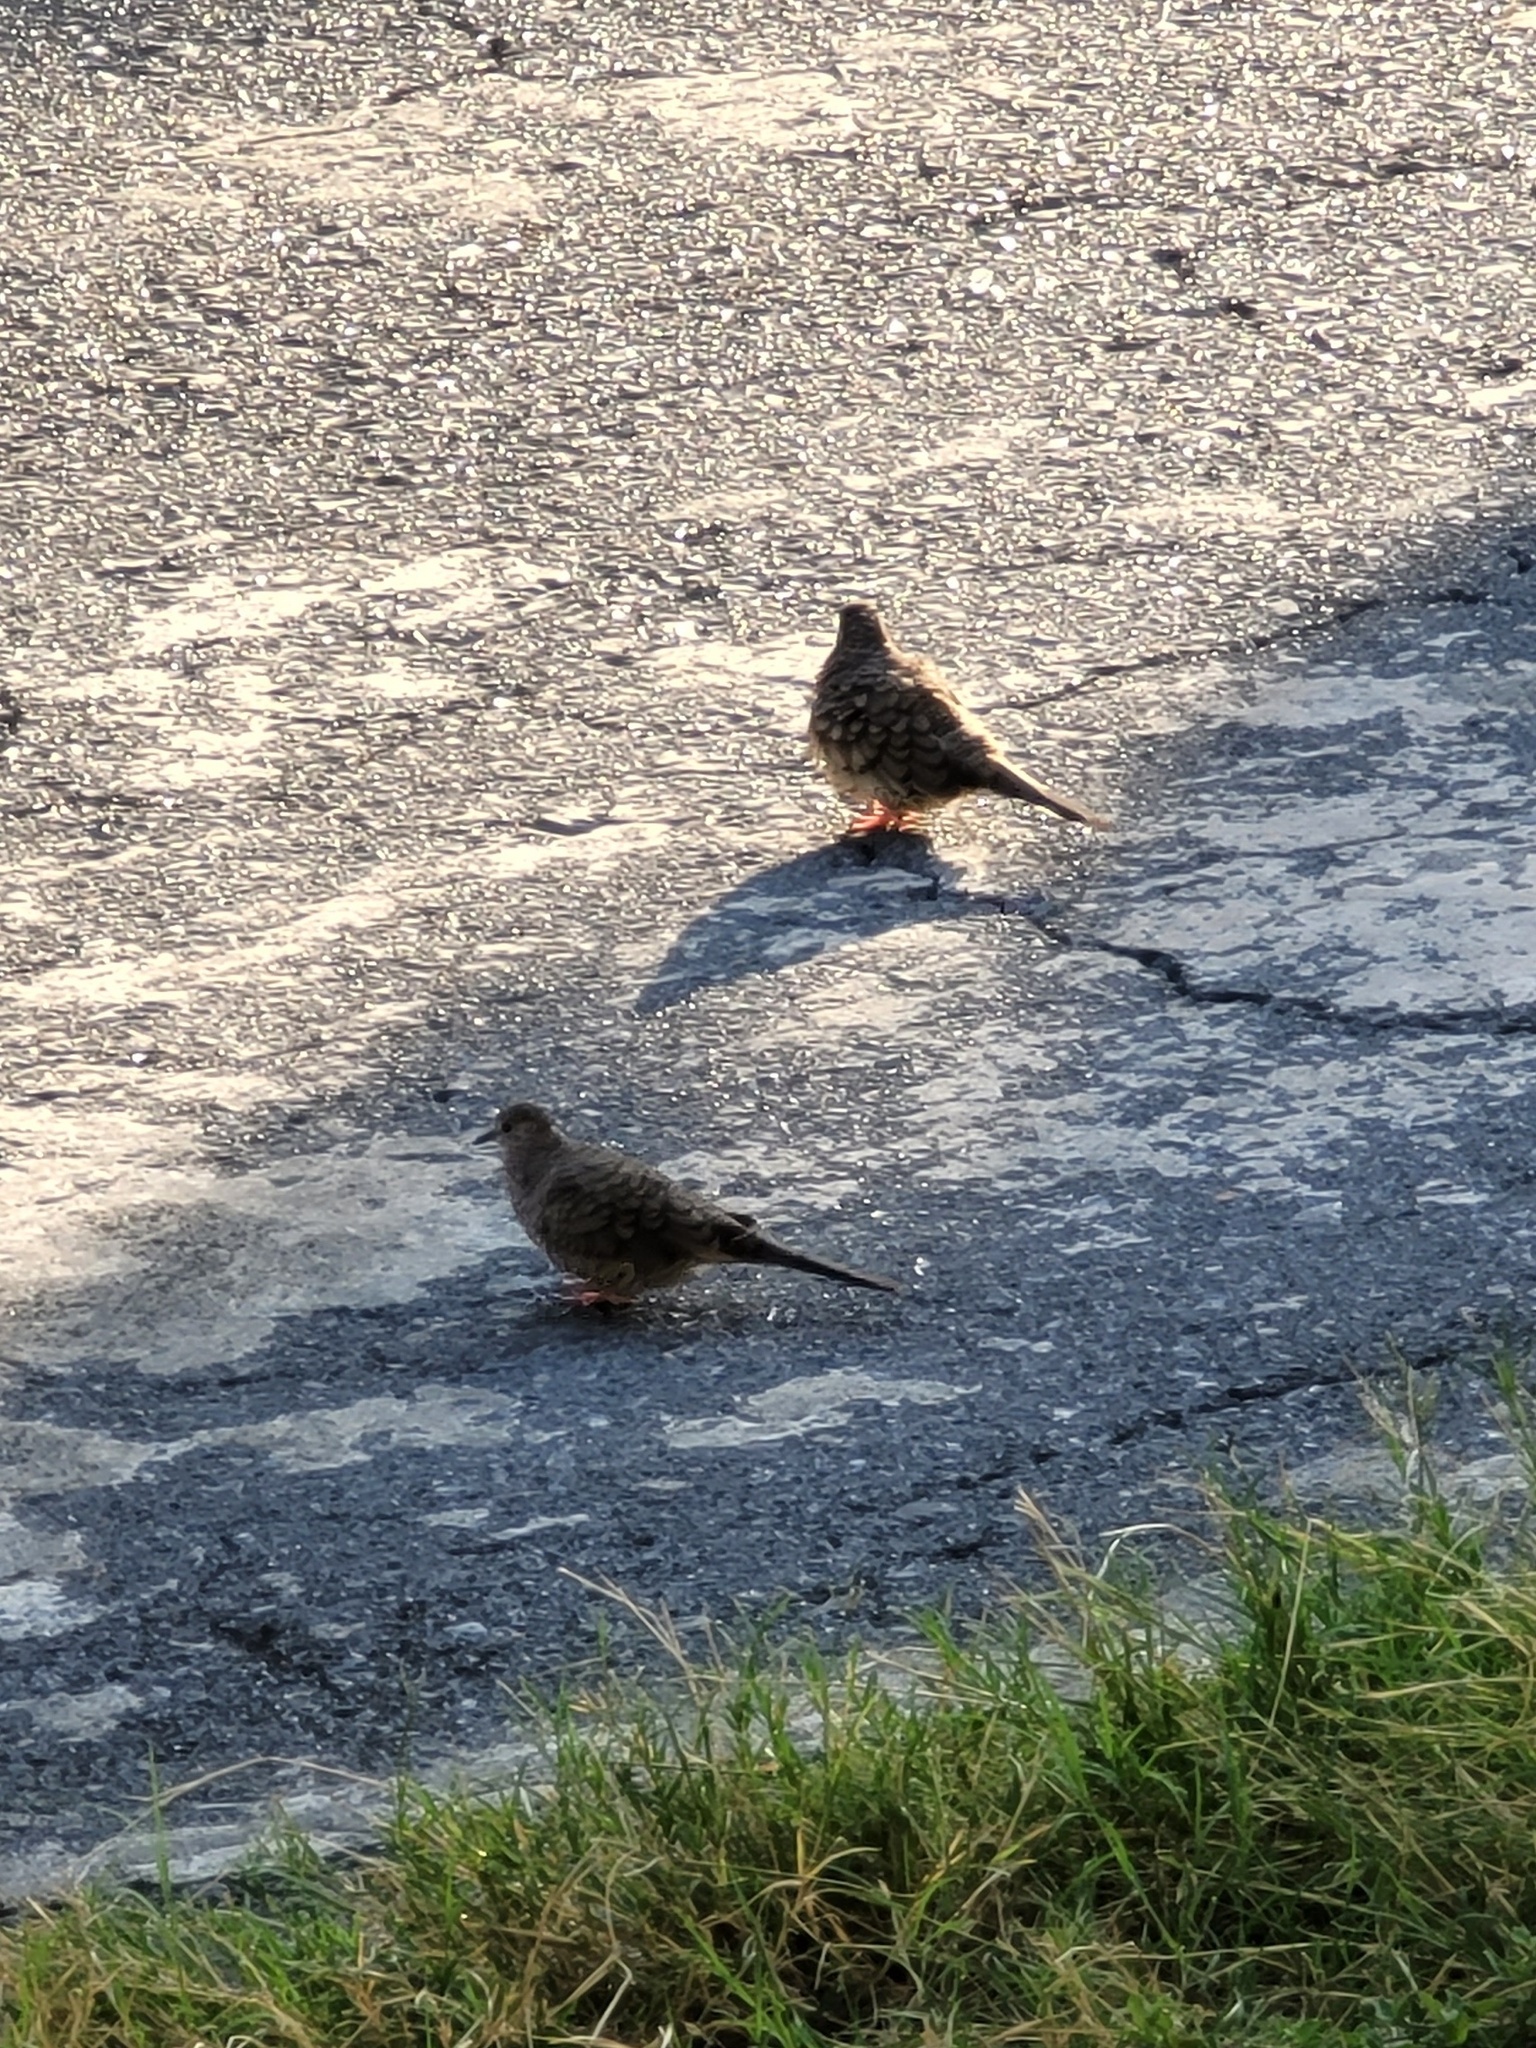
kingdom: Animalia
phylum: Chordata
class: Aves
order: Columbiformes
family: Columbidae
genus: Columbina
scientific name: Columbina inca
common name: Inca dove
